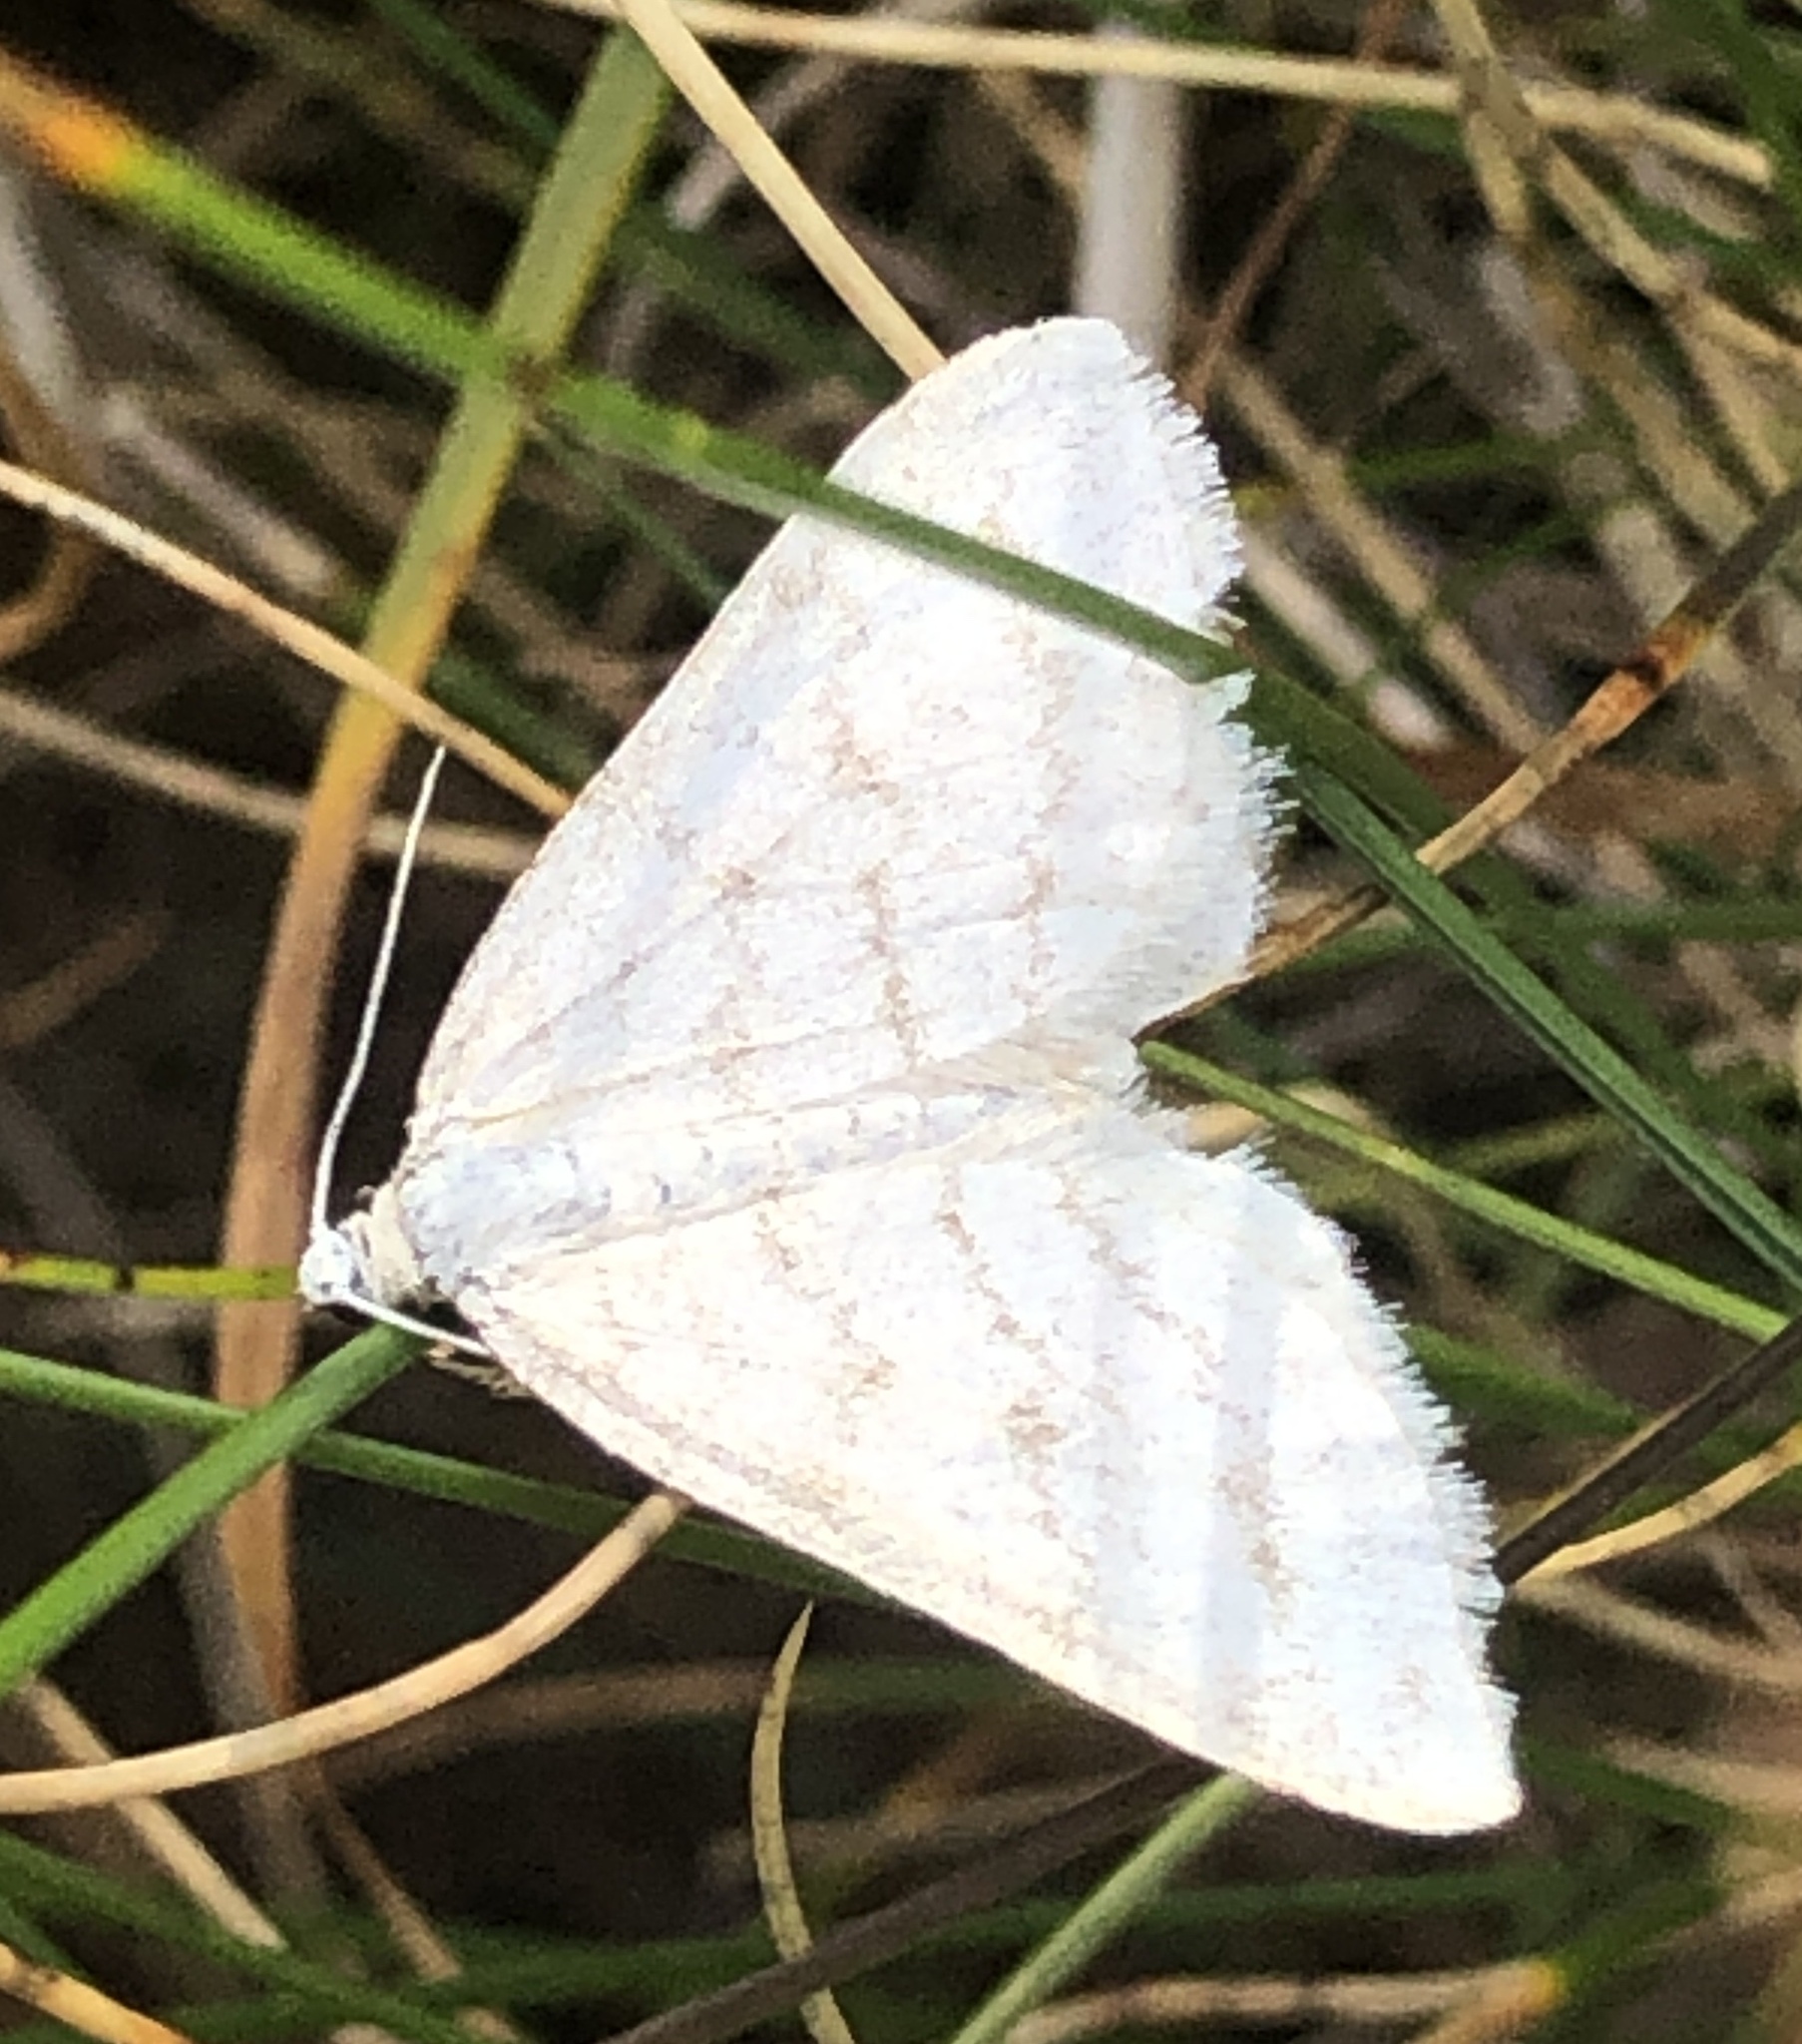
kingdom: Animalia
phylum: Arthropoda
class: Insecta
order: Lepidoptera
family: Geometridae
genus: Perizoma
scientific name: Perizoma verberata
